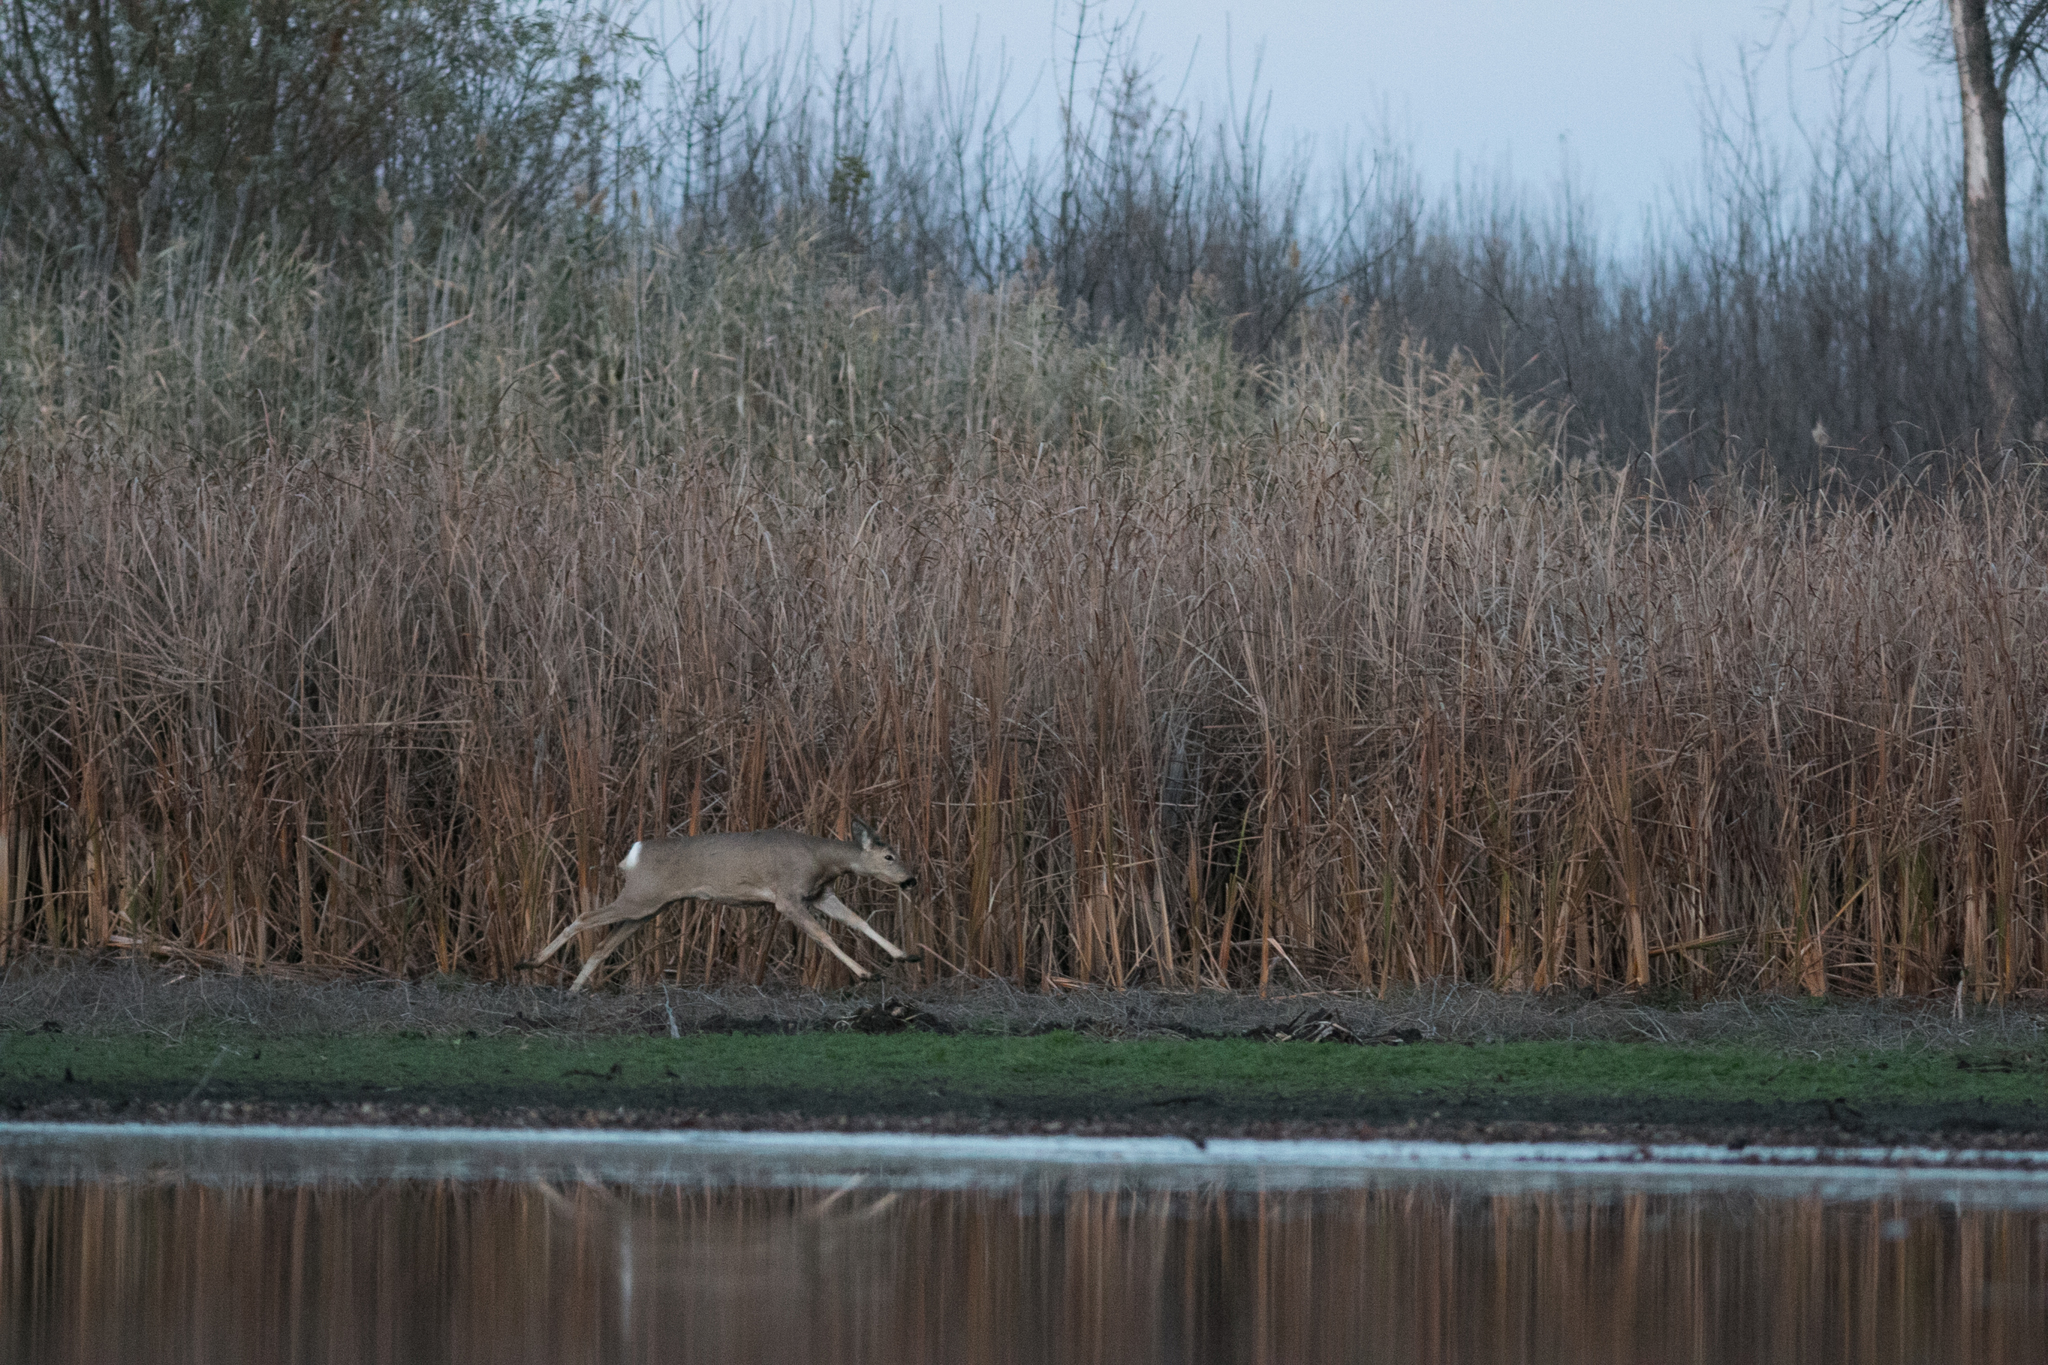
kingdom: Animalia
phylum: Chordata
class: Mammalia
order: Artiodactyla
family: Cervidae
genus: Capreolus
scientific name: Capreolus pygargus
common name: Siberian roe
